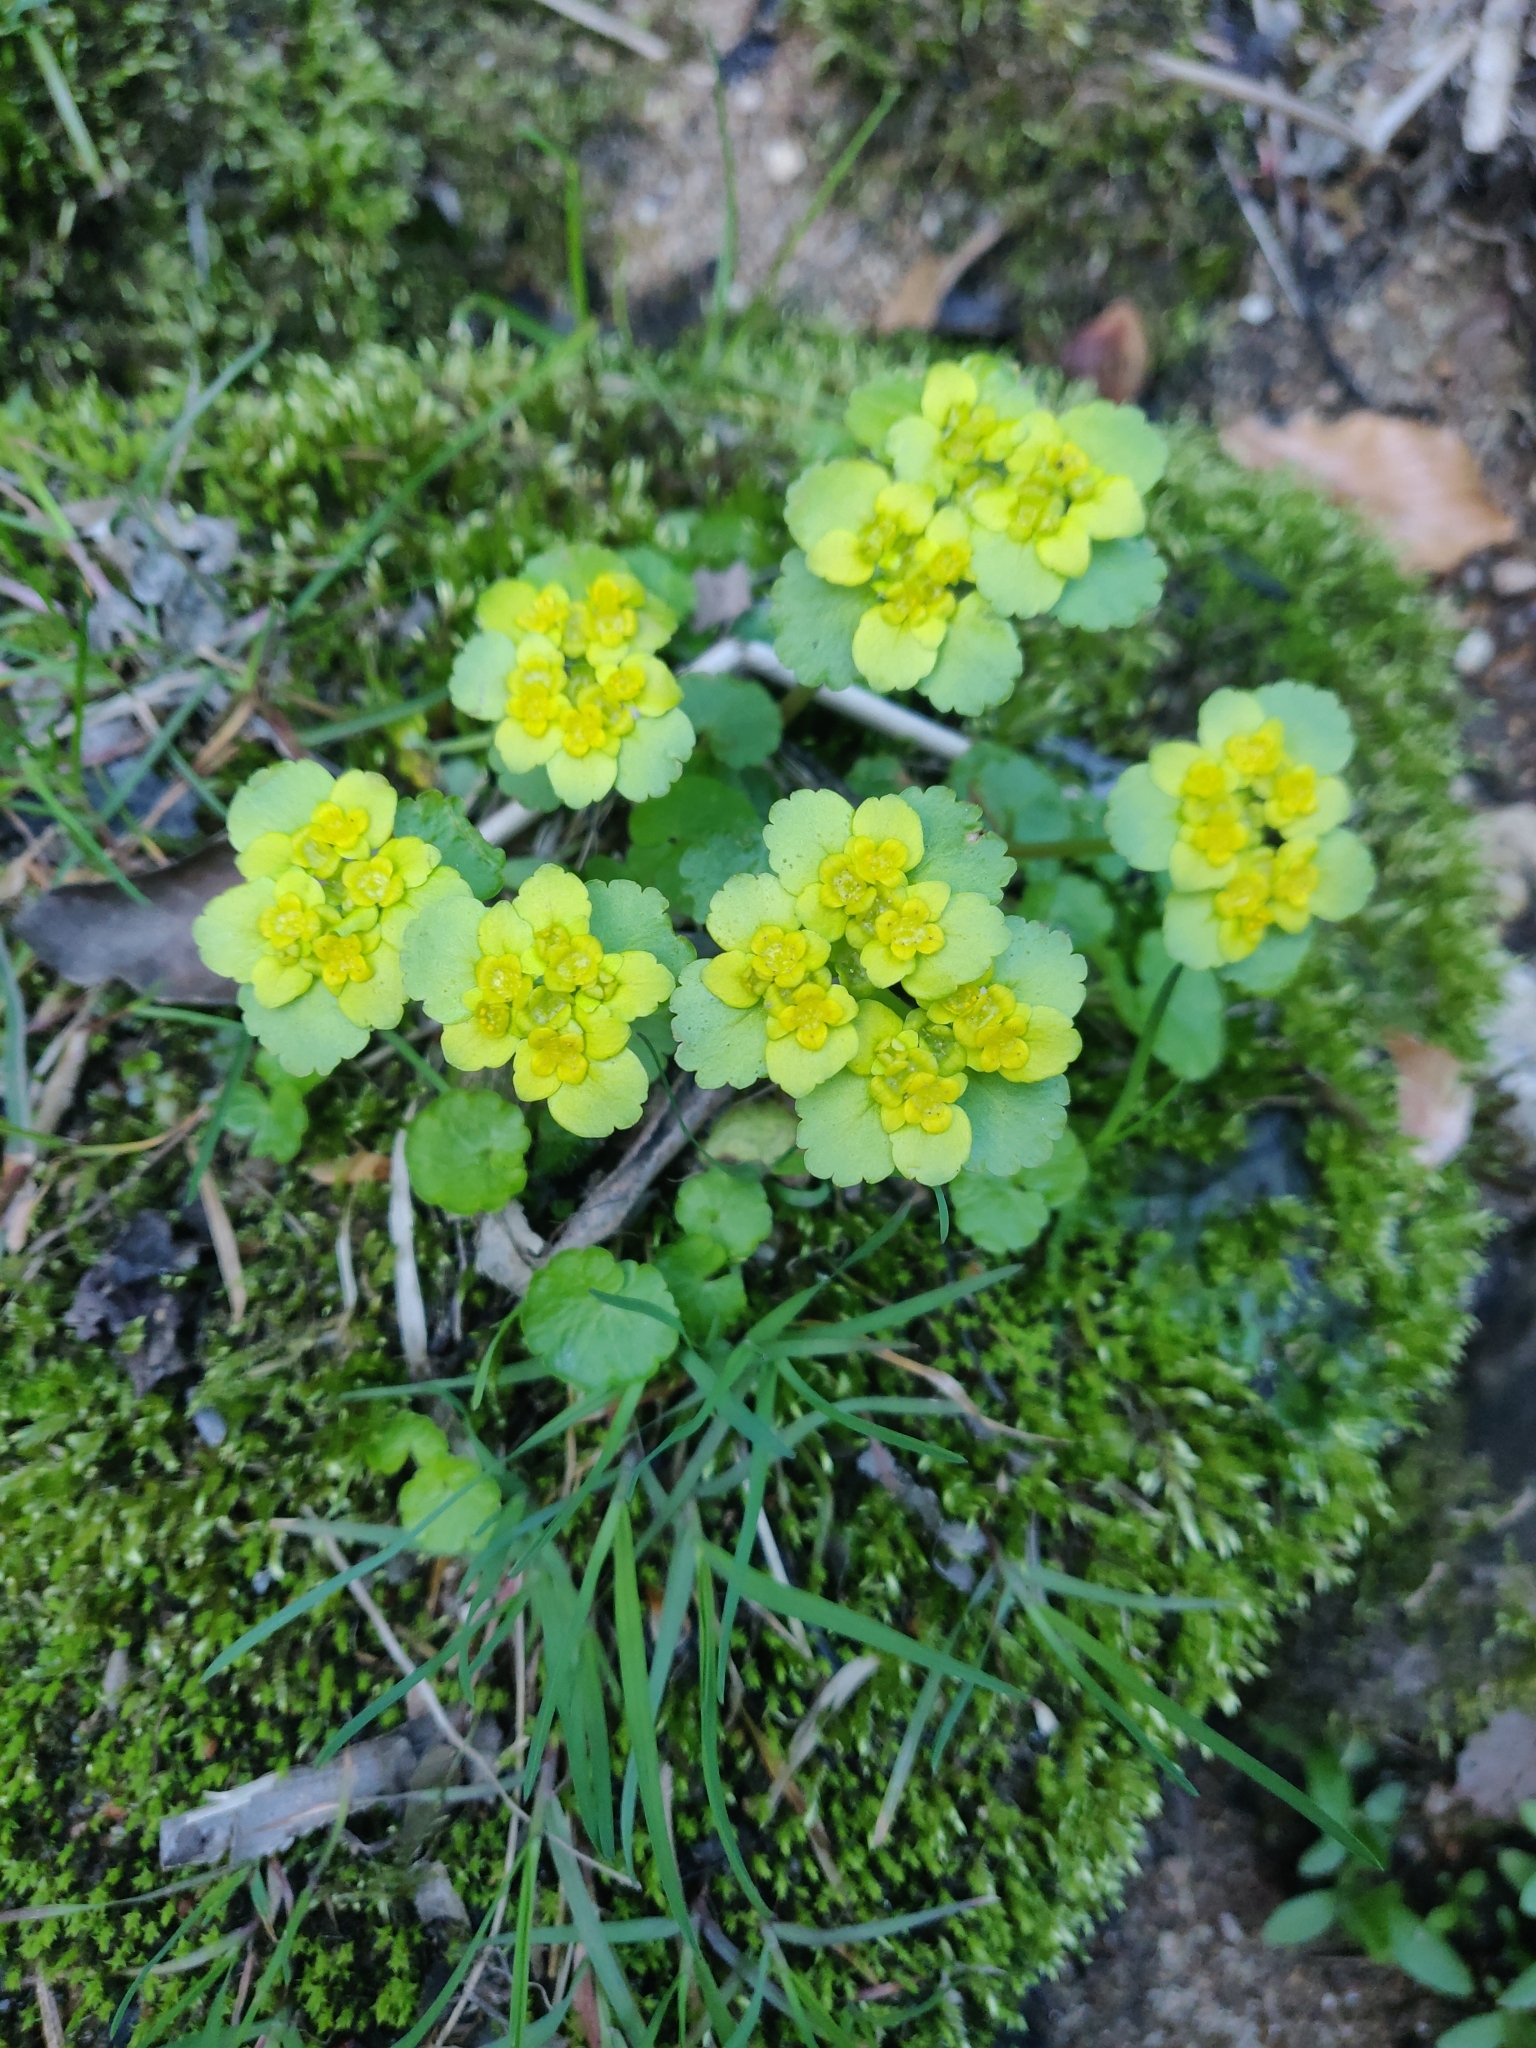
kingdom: Plantae
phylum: Tracheophyta
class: Magnoliopsida
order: Saxifragales
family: Saxifragaceae
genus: Chrysosplenium
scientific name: Chrysosplenium alternifolium
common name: Alternate-leaved golden-saxifrage
